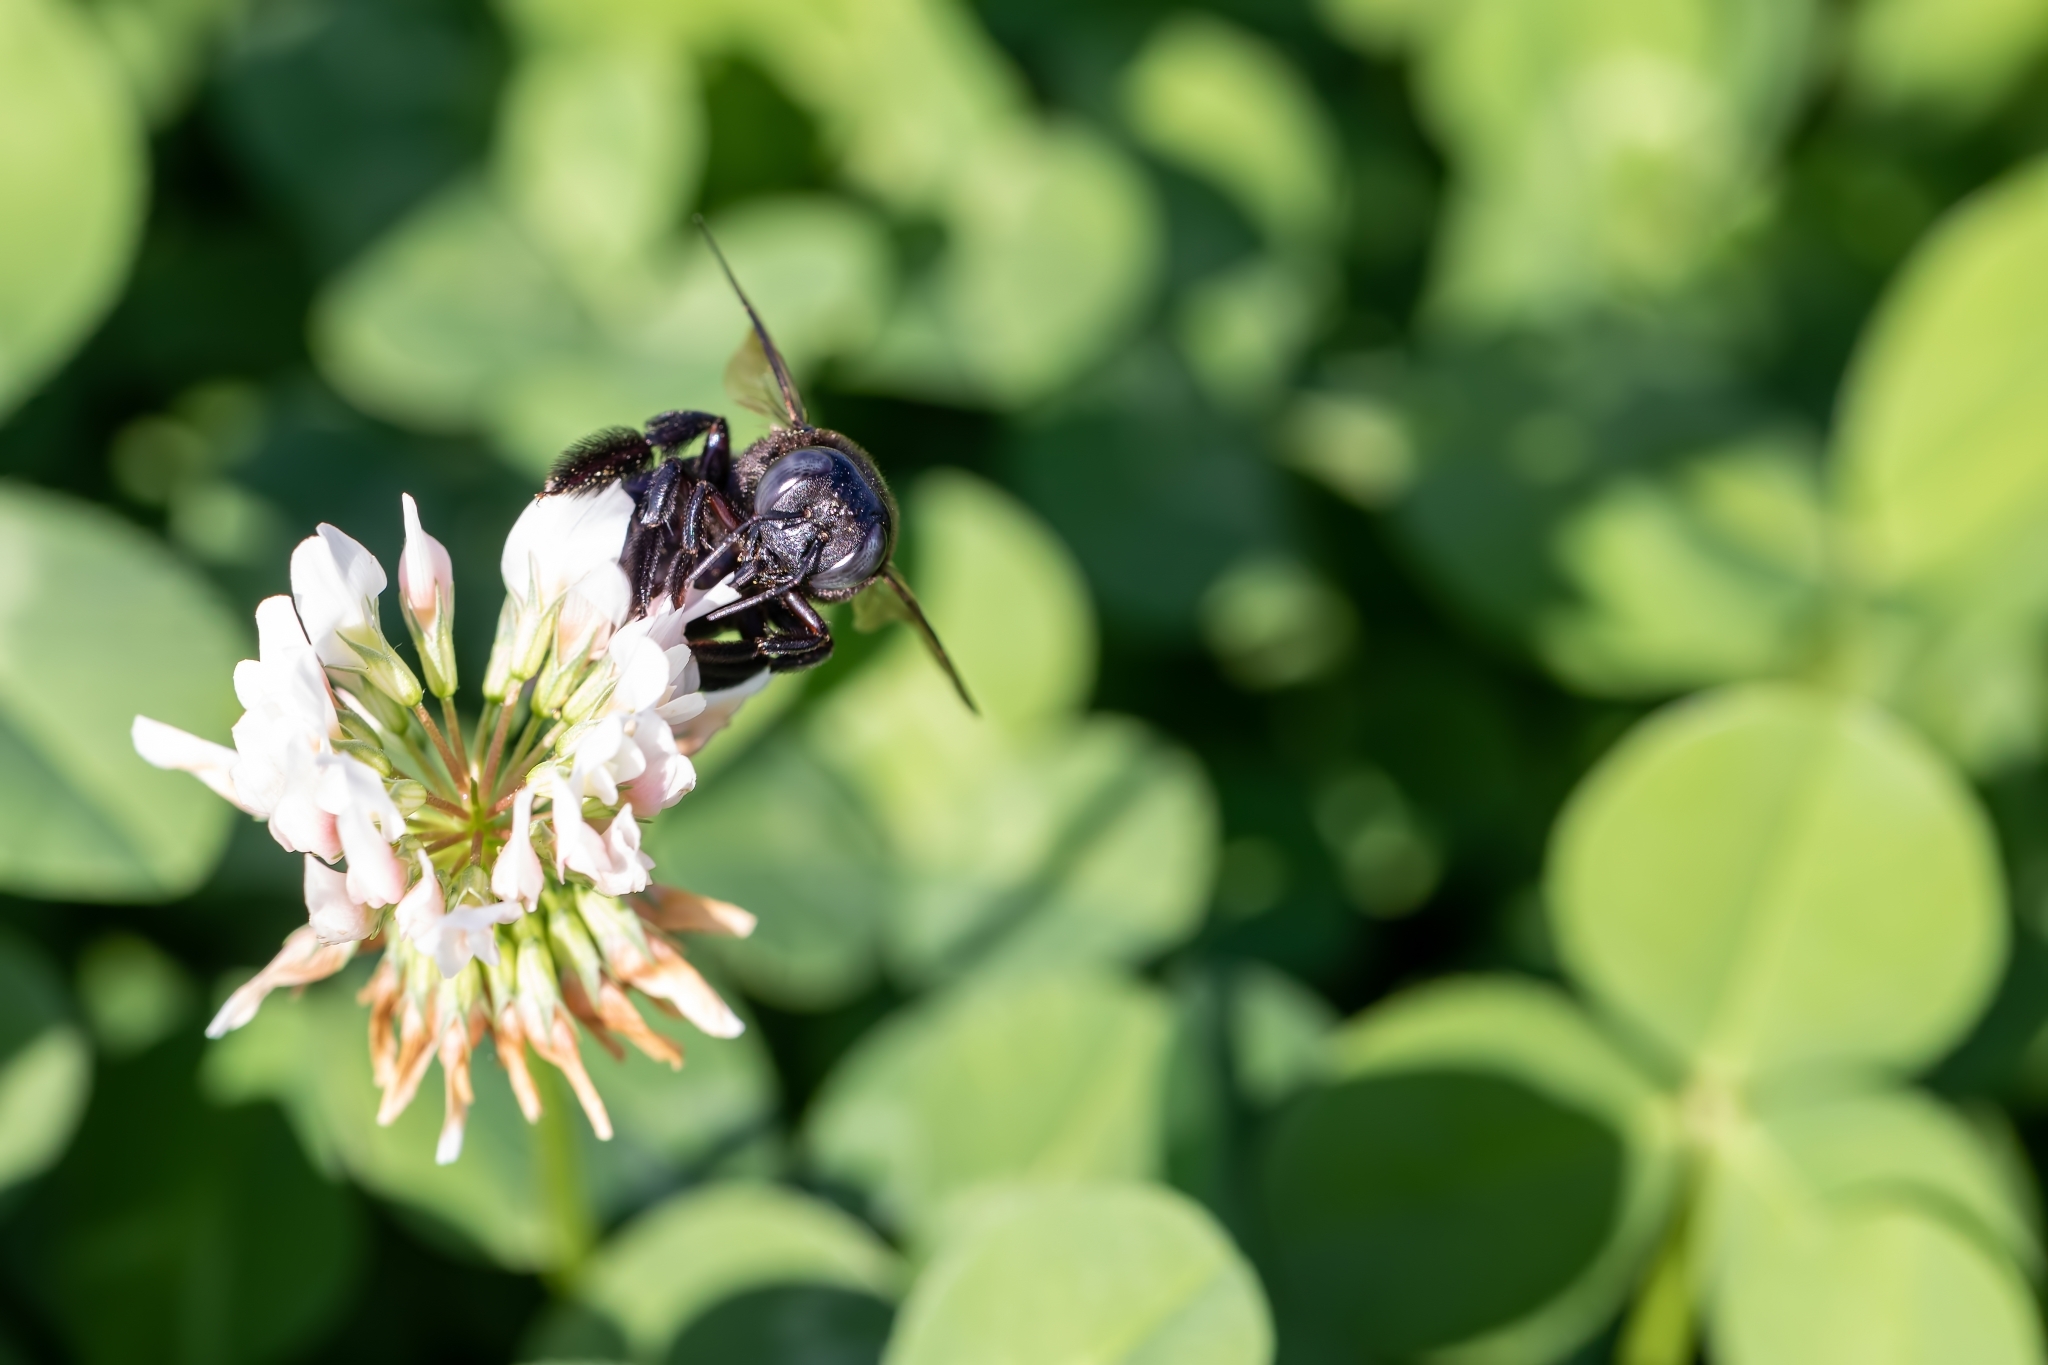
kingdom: Animalia
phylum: Arthropoda
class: Insecta
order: Hymenoptera
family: Apidae
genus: Xylocopa
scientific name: Xylocopa micans
